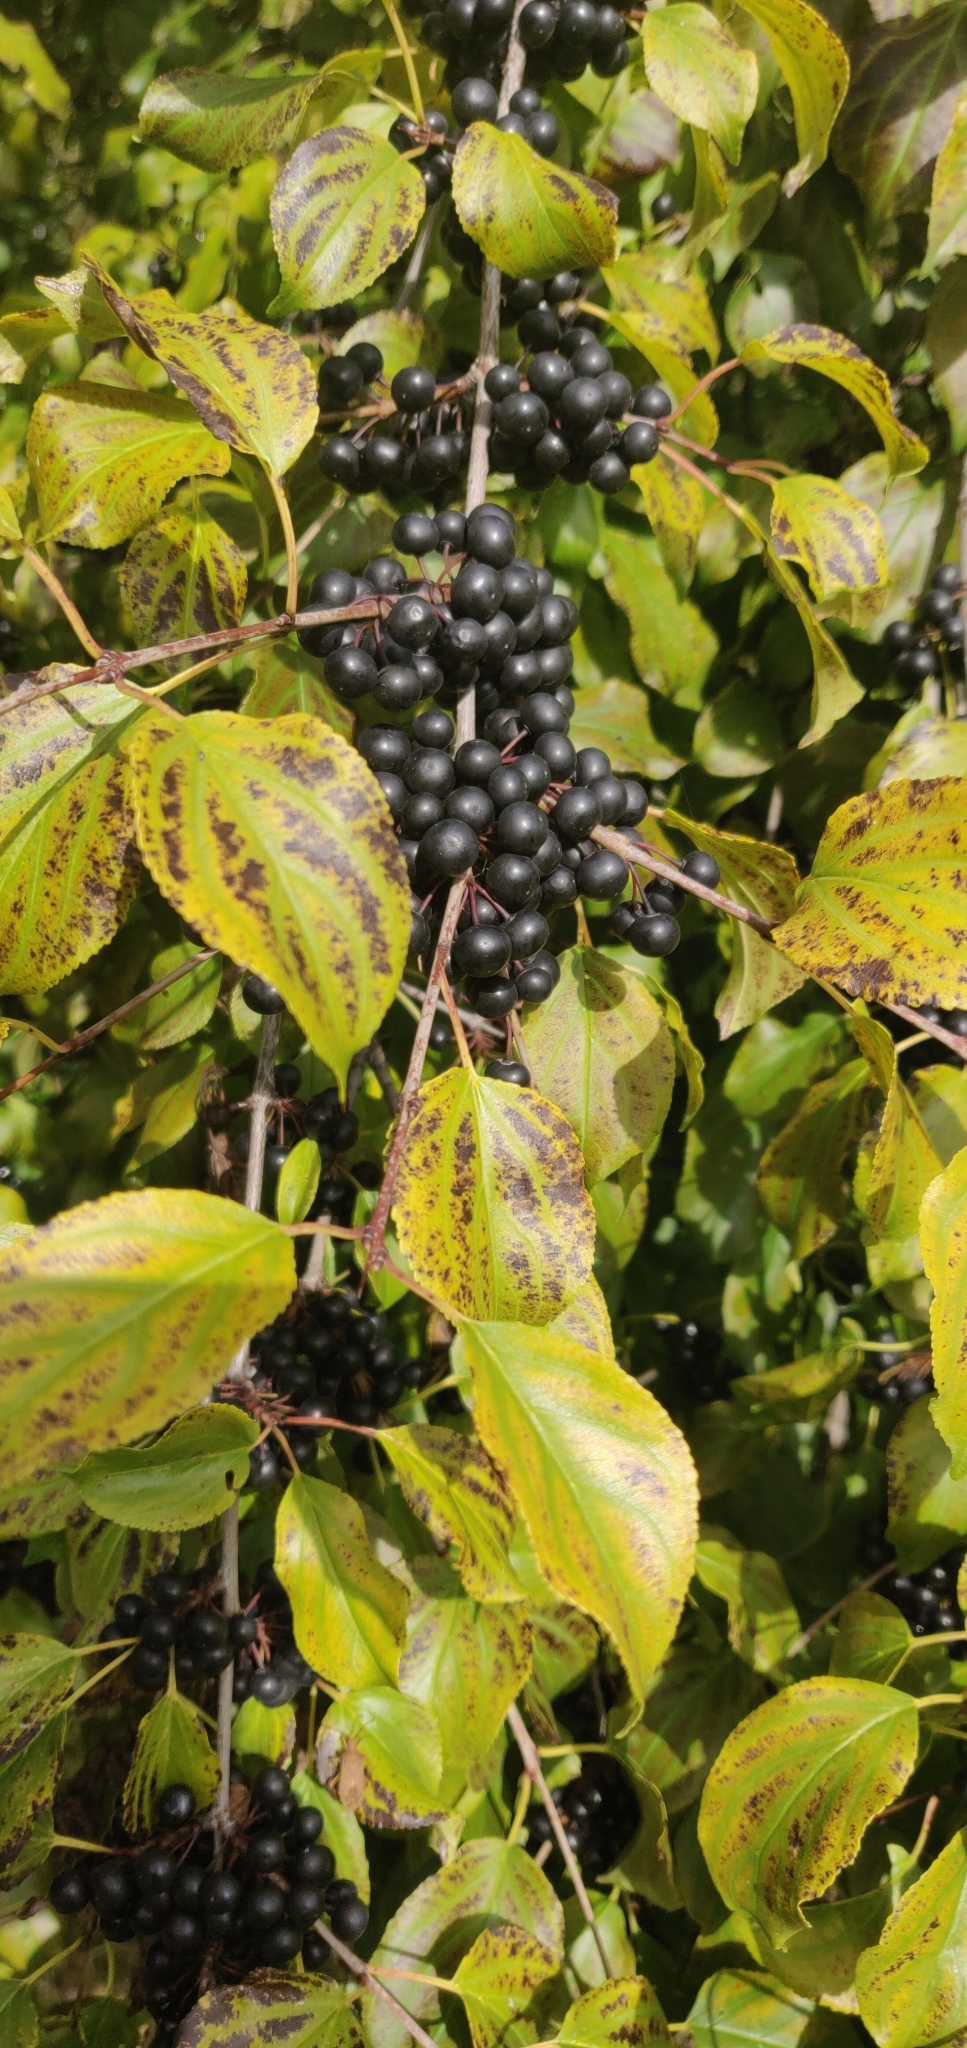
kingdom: Plantae
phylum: Tracheophyta
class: Magnoliopsida
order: Rosales
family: Rhamnaceae
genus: Rhamnus
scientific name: Rhamnus cathartica
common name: Common buckthorn
